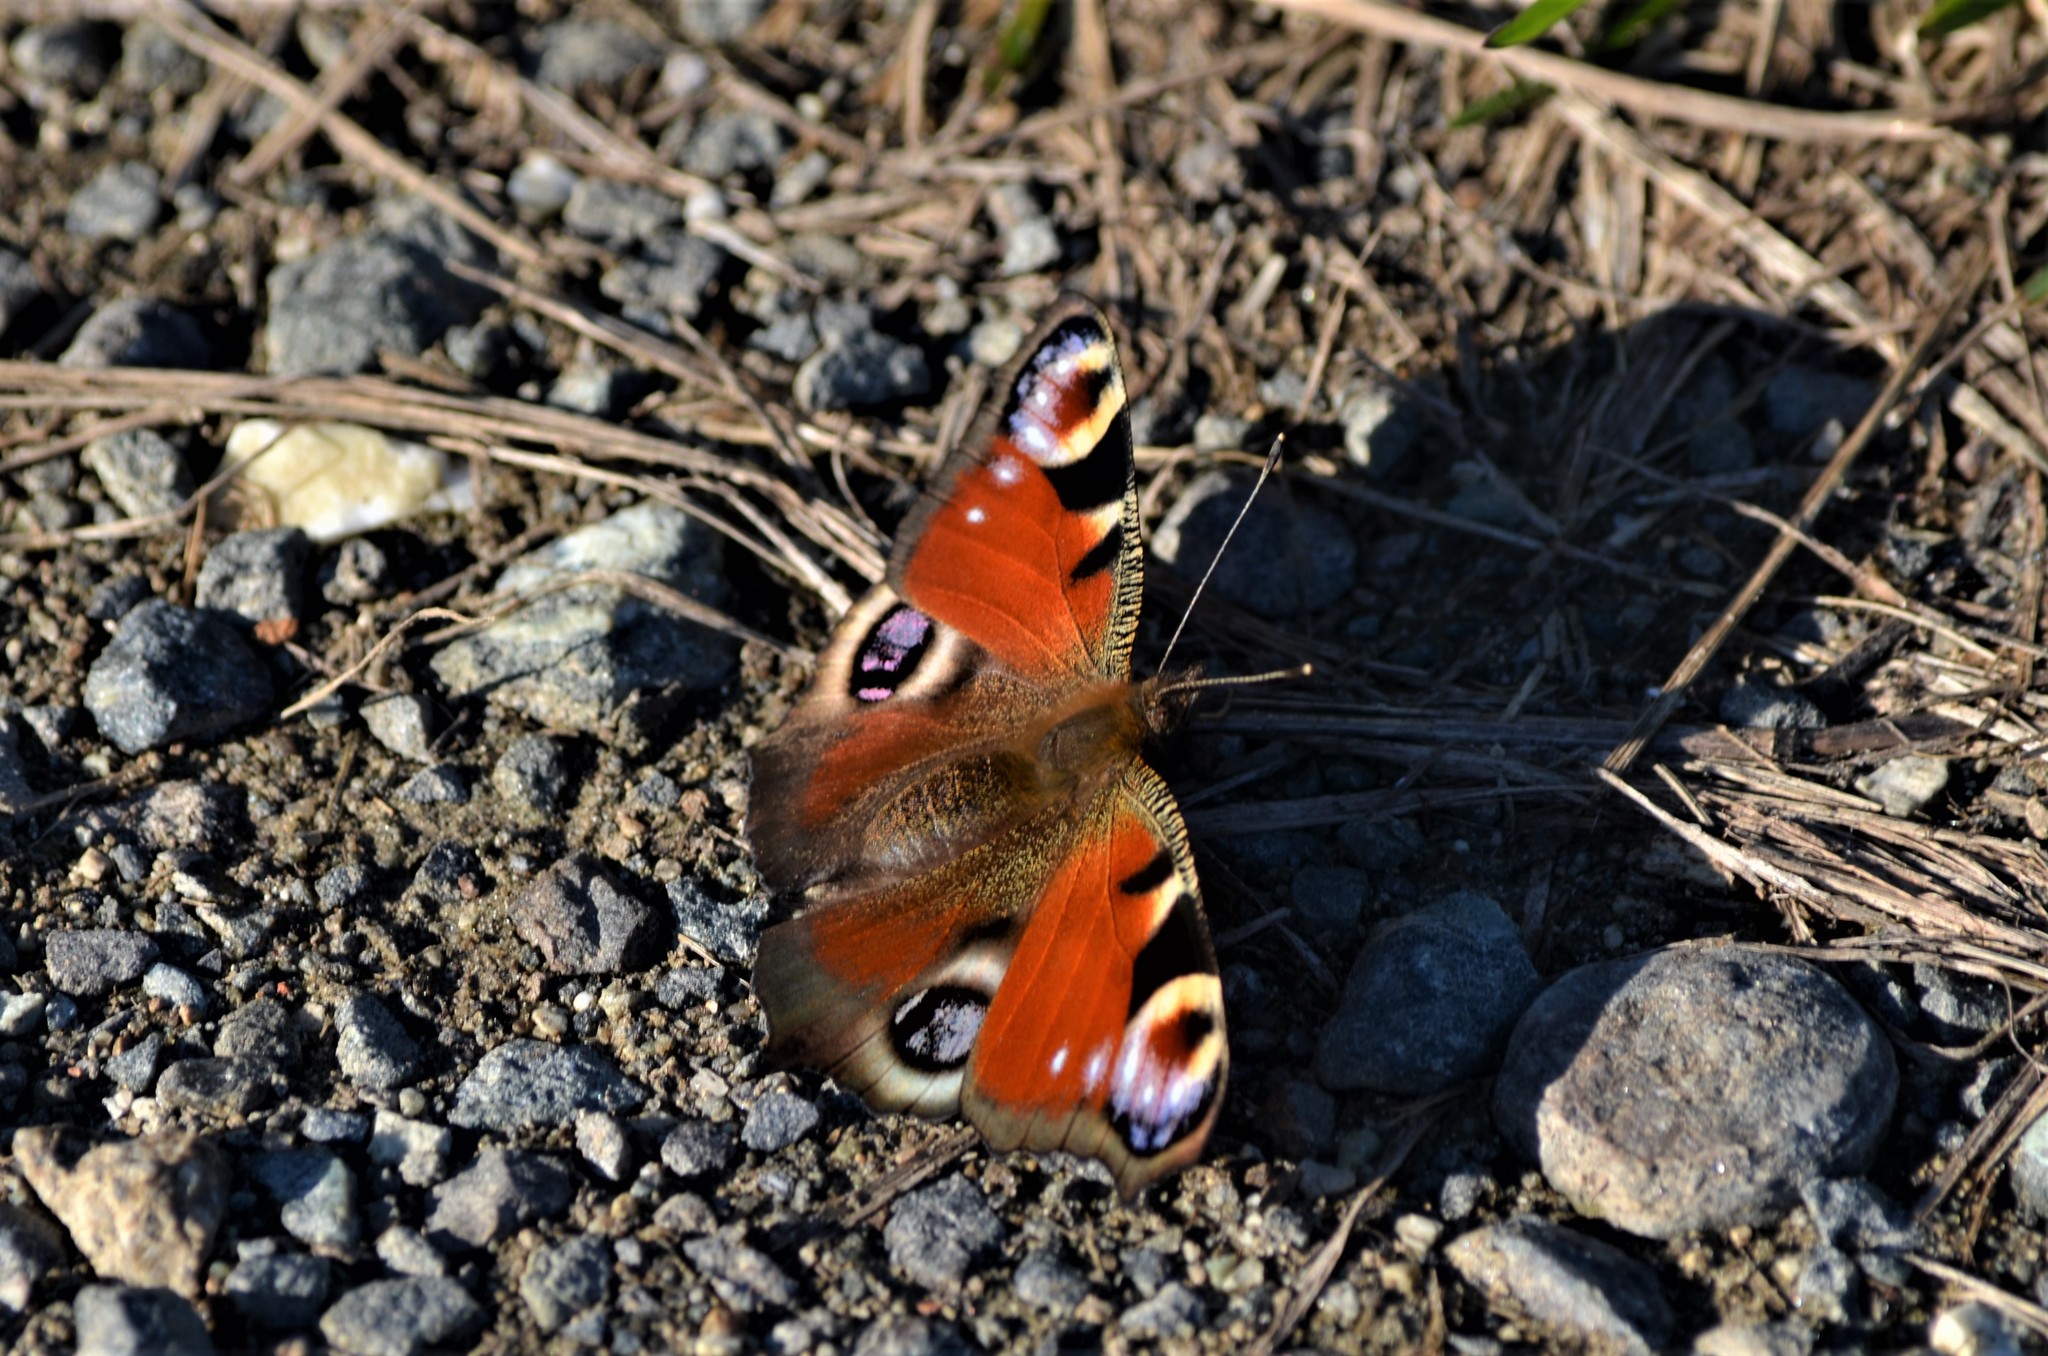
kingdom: Animalia
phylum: Arthropoda
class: Insecta
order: Lepidoptera
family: Nymphalidae
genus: Aglais
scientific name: Aglais io
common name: Peacock
